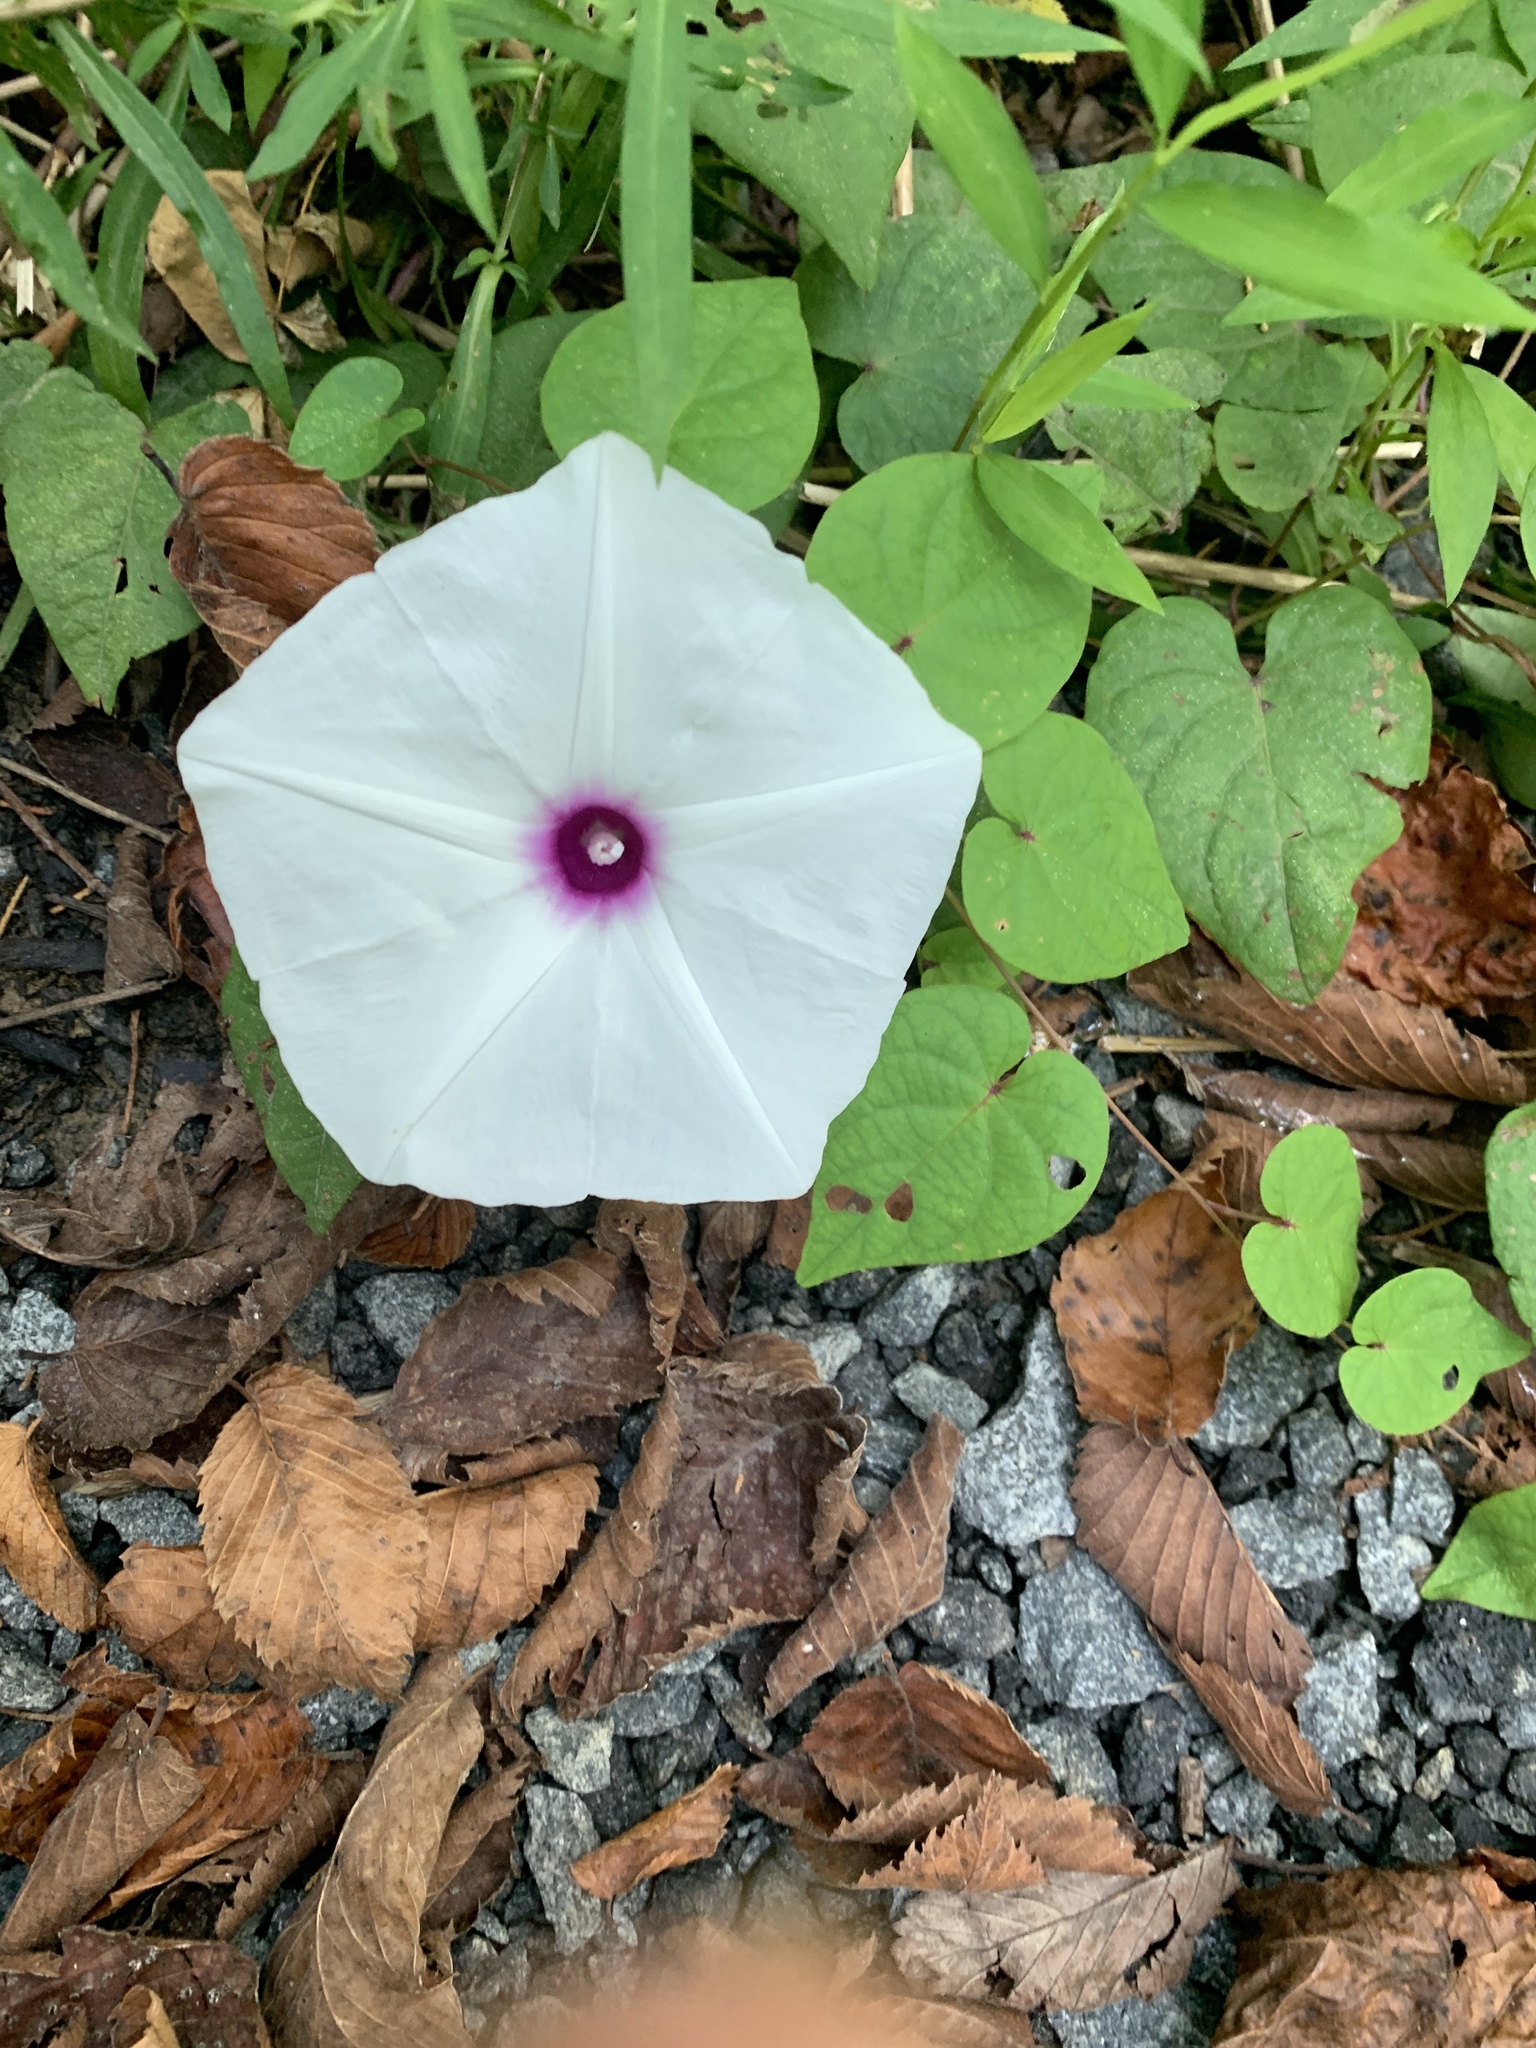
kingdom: Plantae
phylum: Tracheophyta
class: Magnoliopsida
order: Solanales
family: Convolvulaceae
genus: Ipomoea
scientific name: Ipomoea pandurata
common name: Man-of-the-earth
